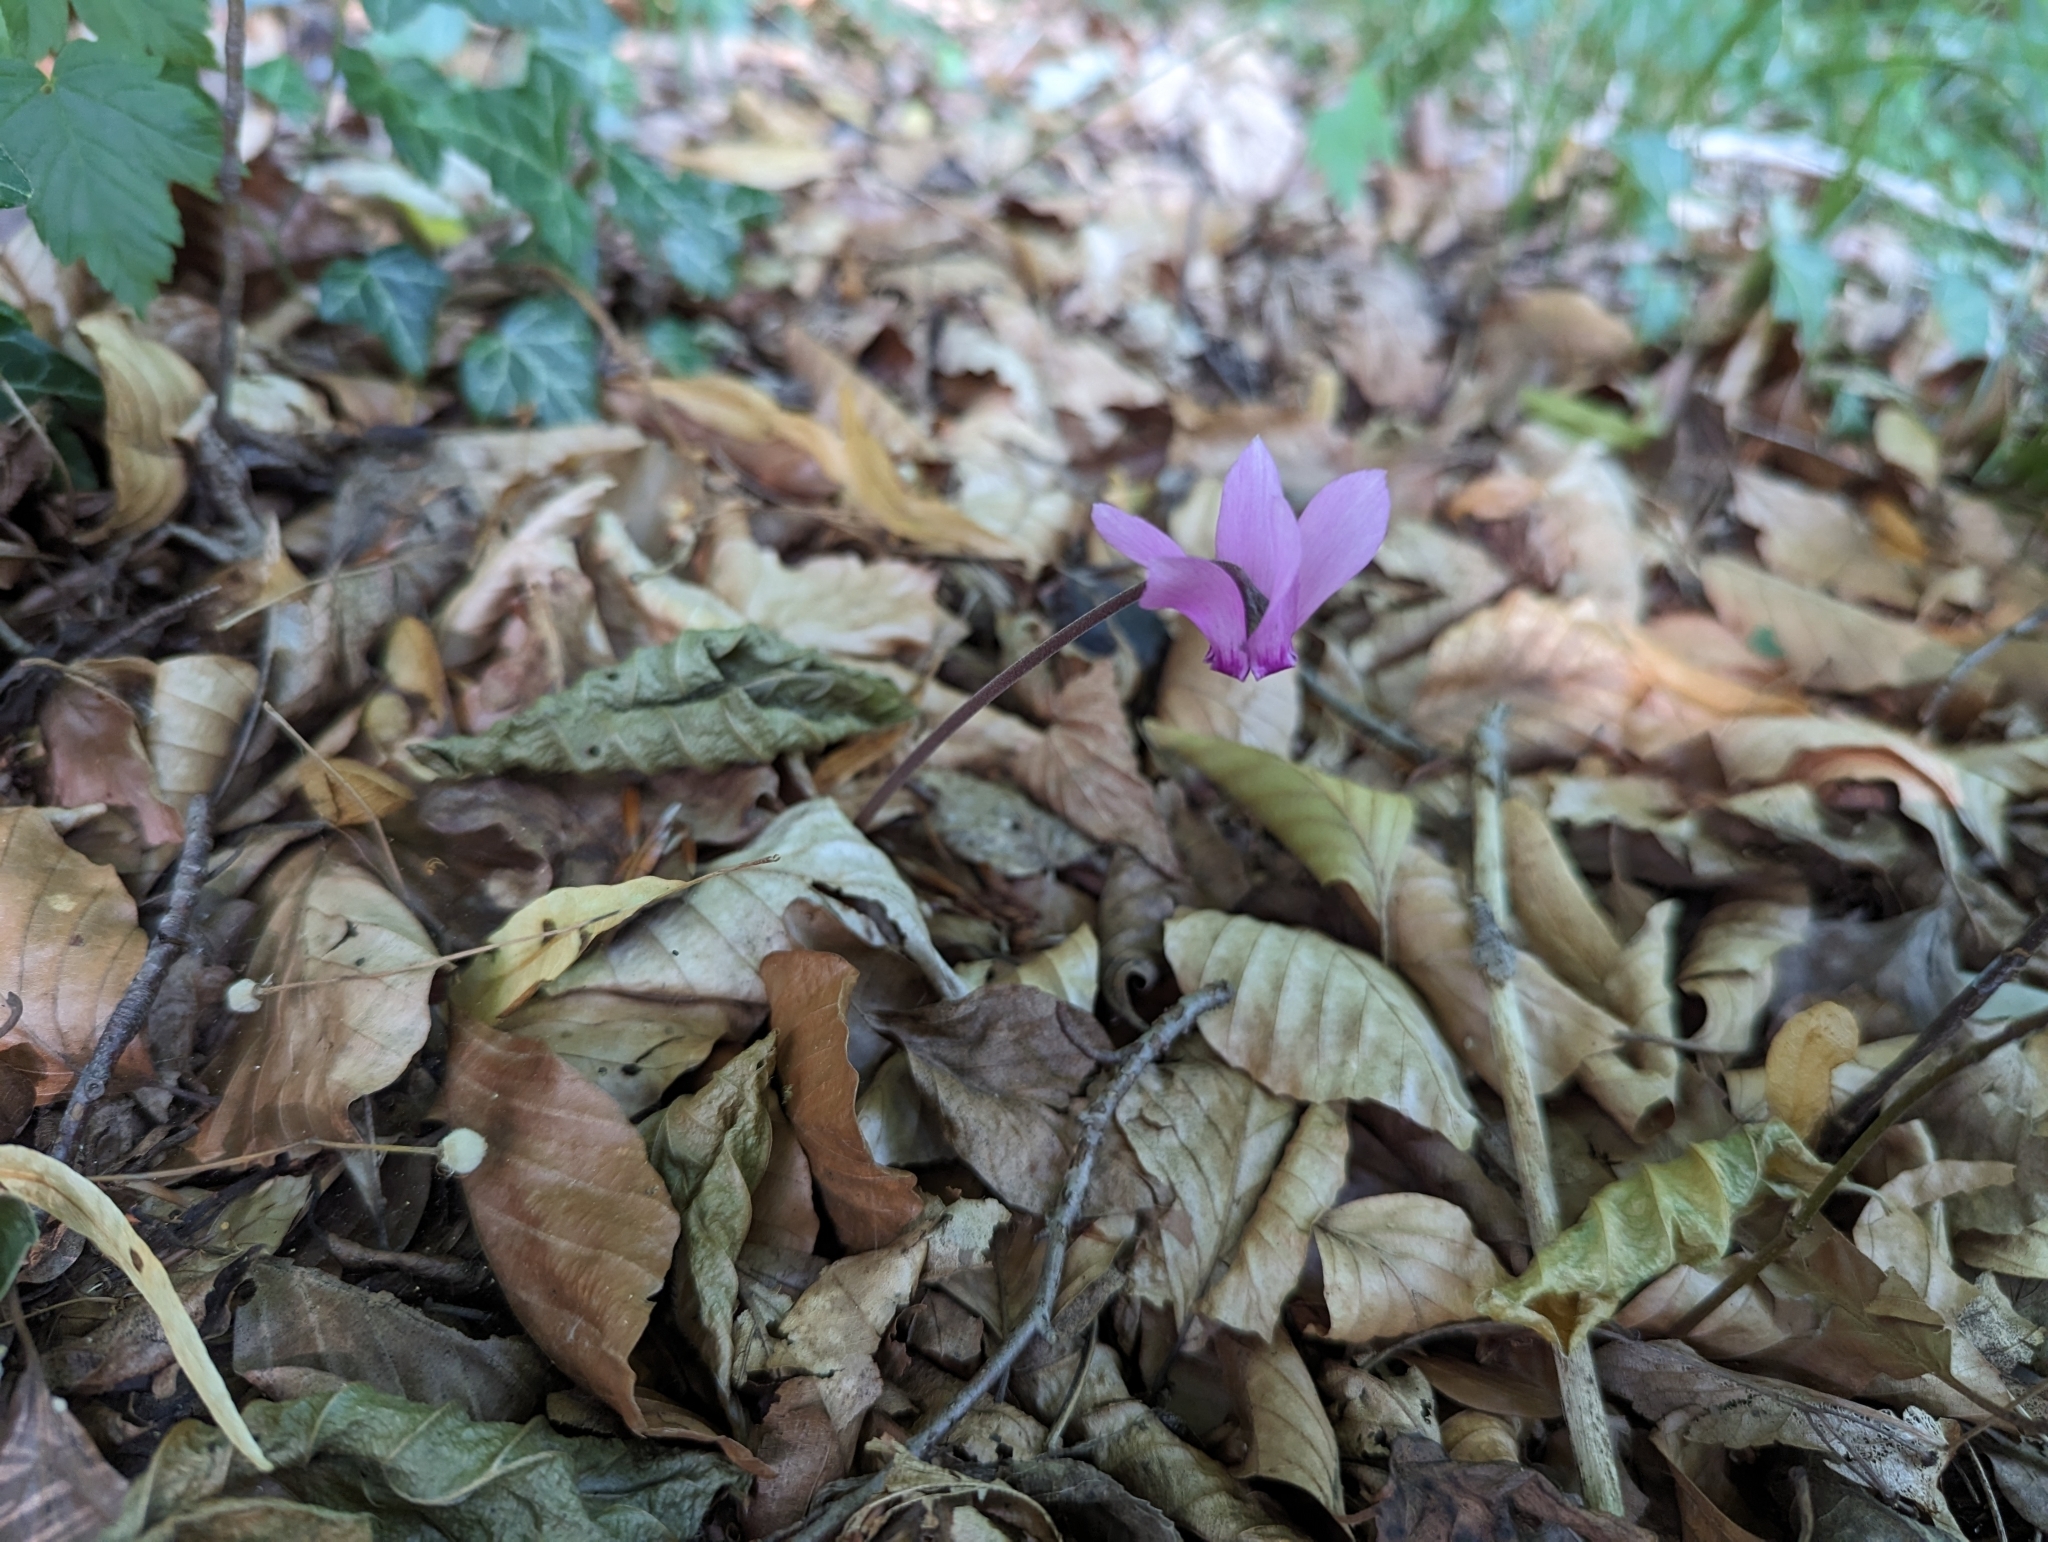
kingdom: Plantae
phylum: Tracheophyta
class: Magnoliopsida
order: Ericales
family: Primulaceae
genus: Cyclamen
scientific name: Cyclamen purpurascens
